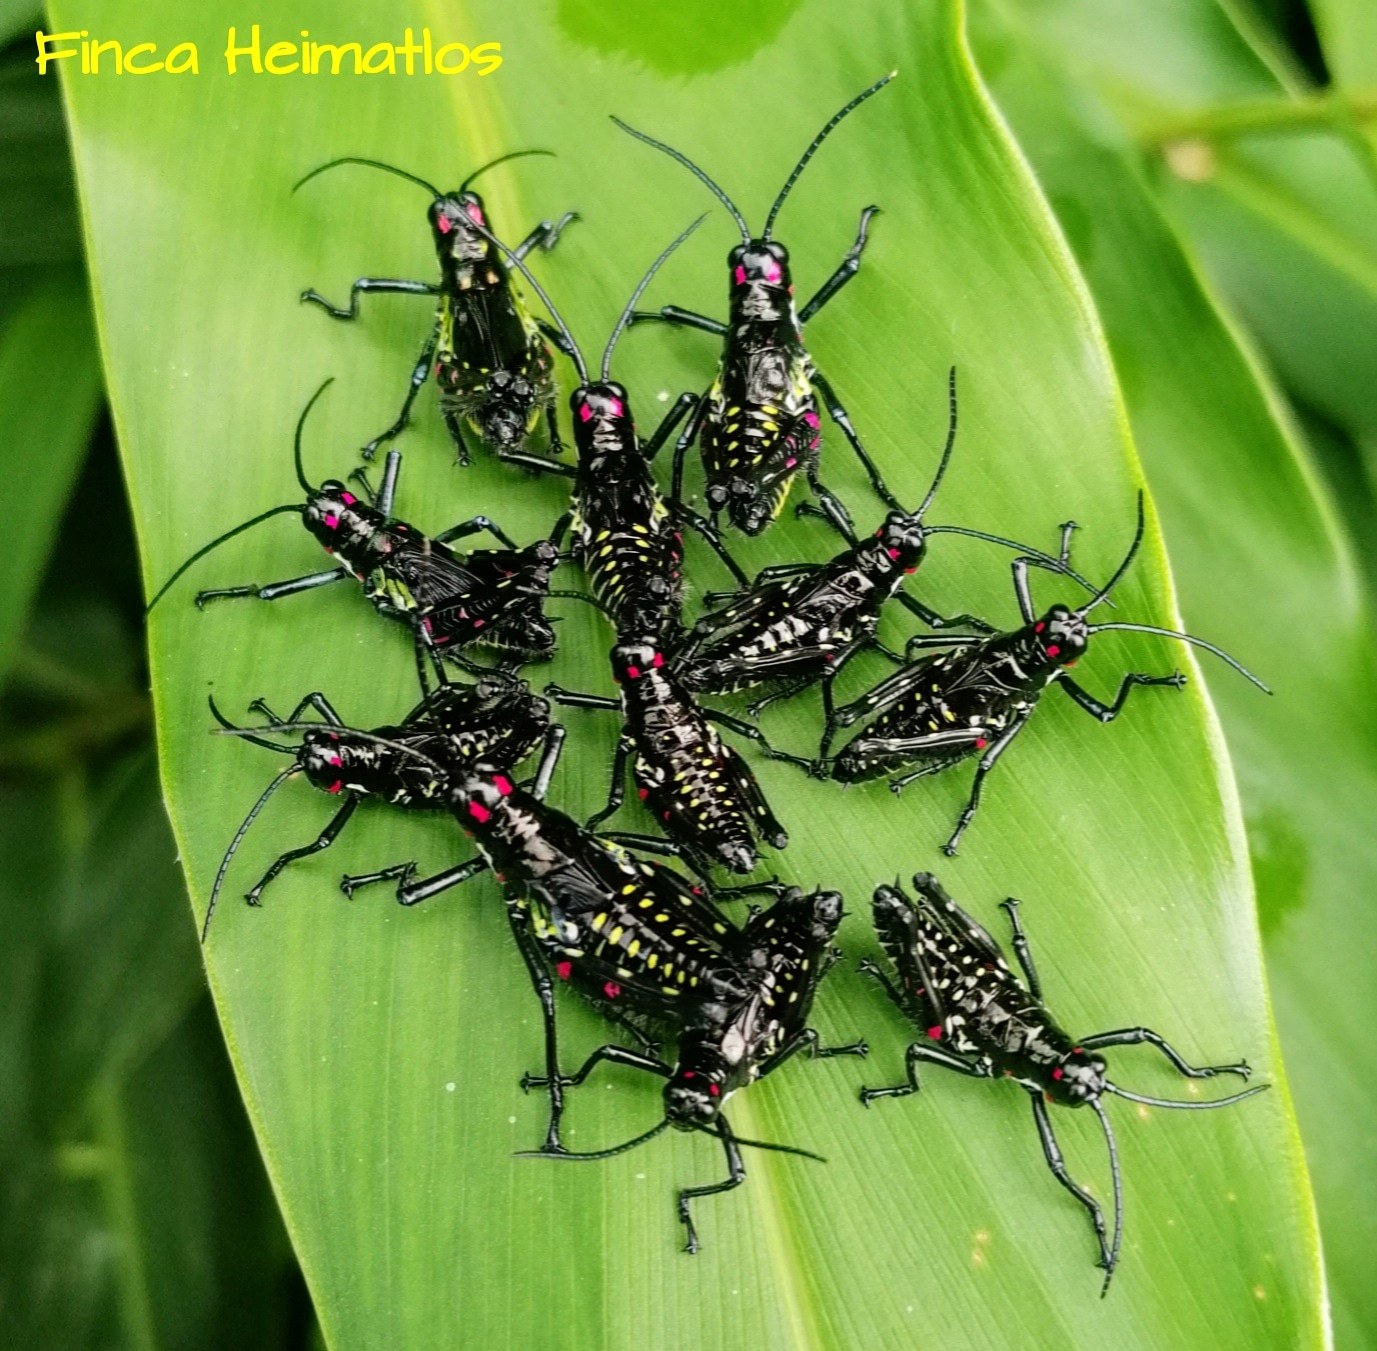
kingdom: Animalia
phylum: Arthropoda
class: Insecta
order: Orthoptera
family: Romaleidae
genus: Chromacris
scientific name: Chromacris icterus
